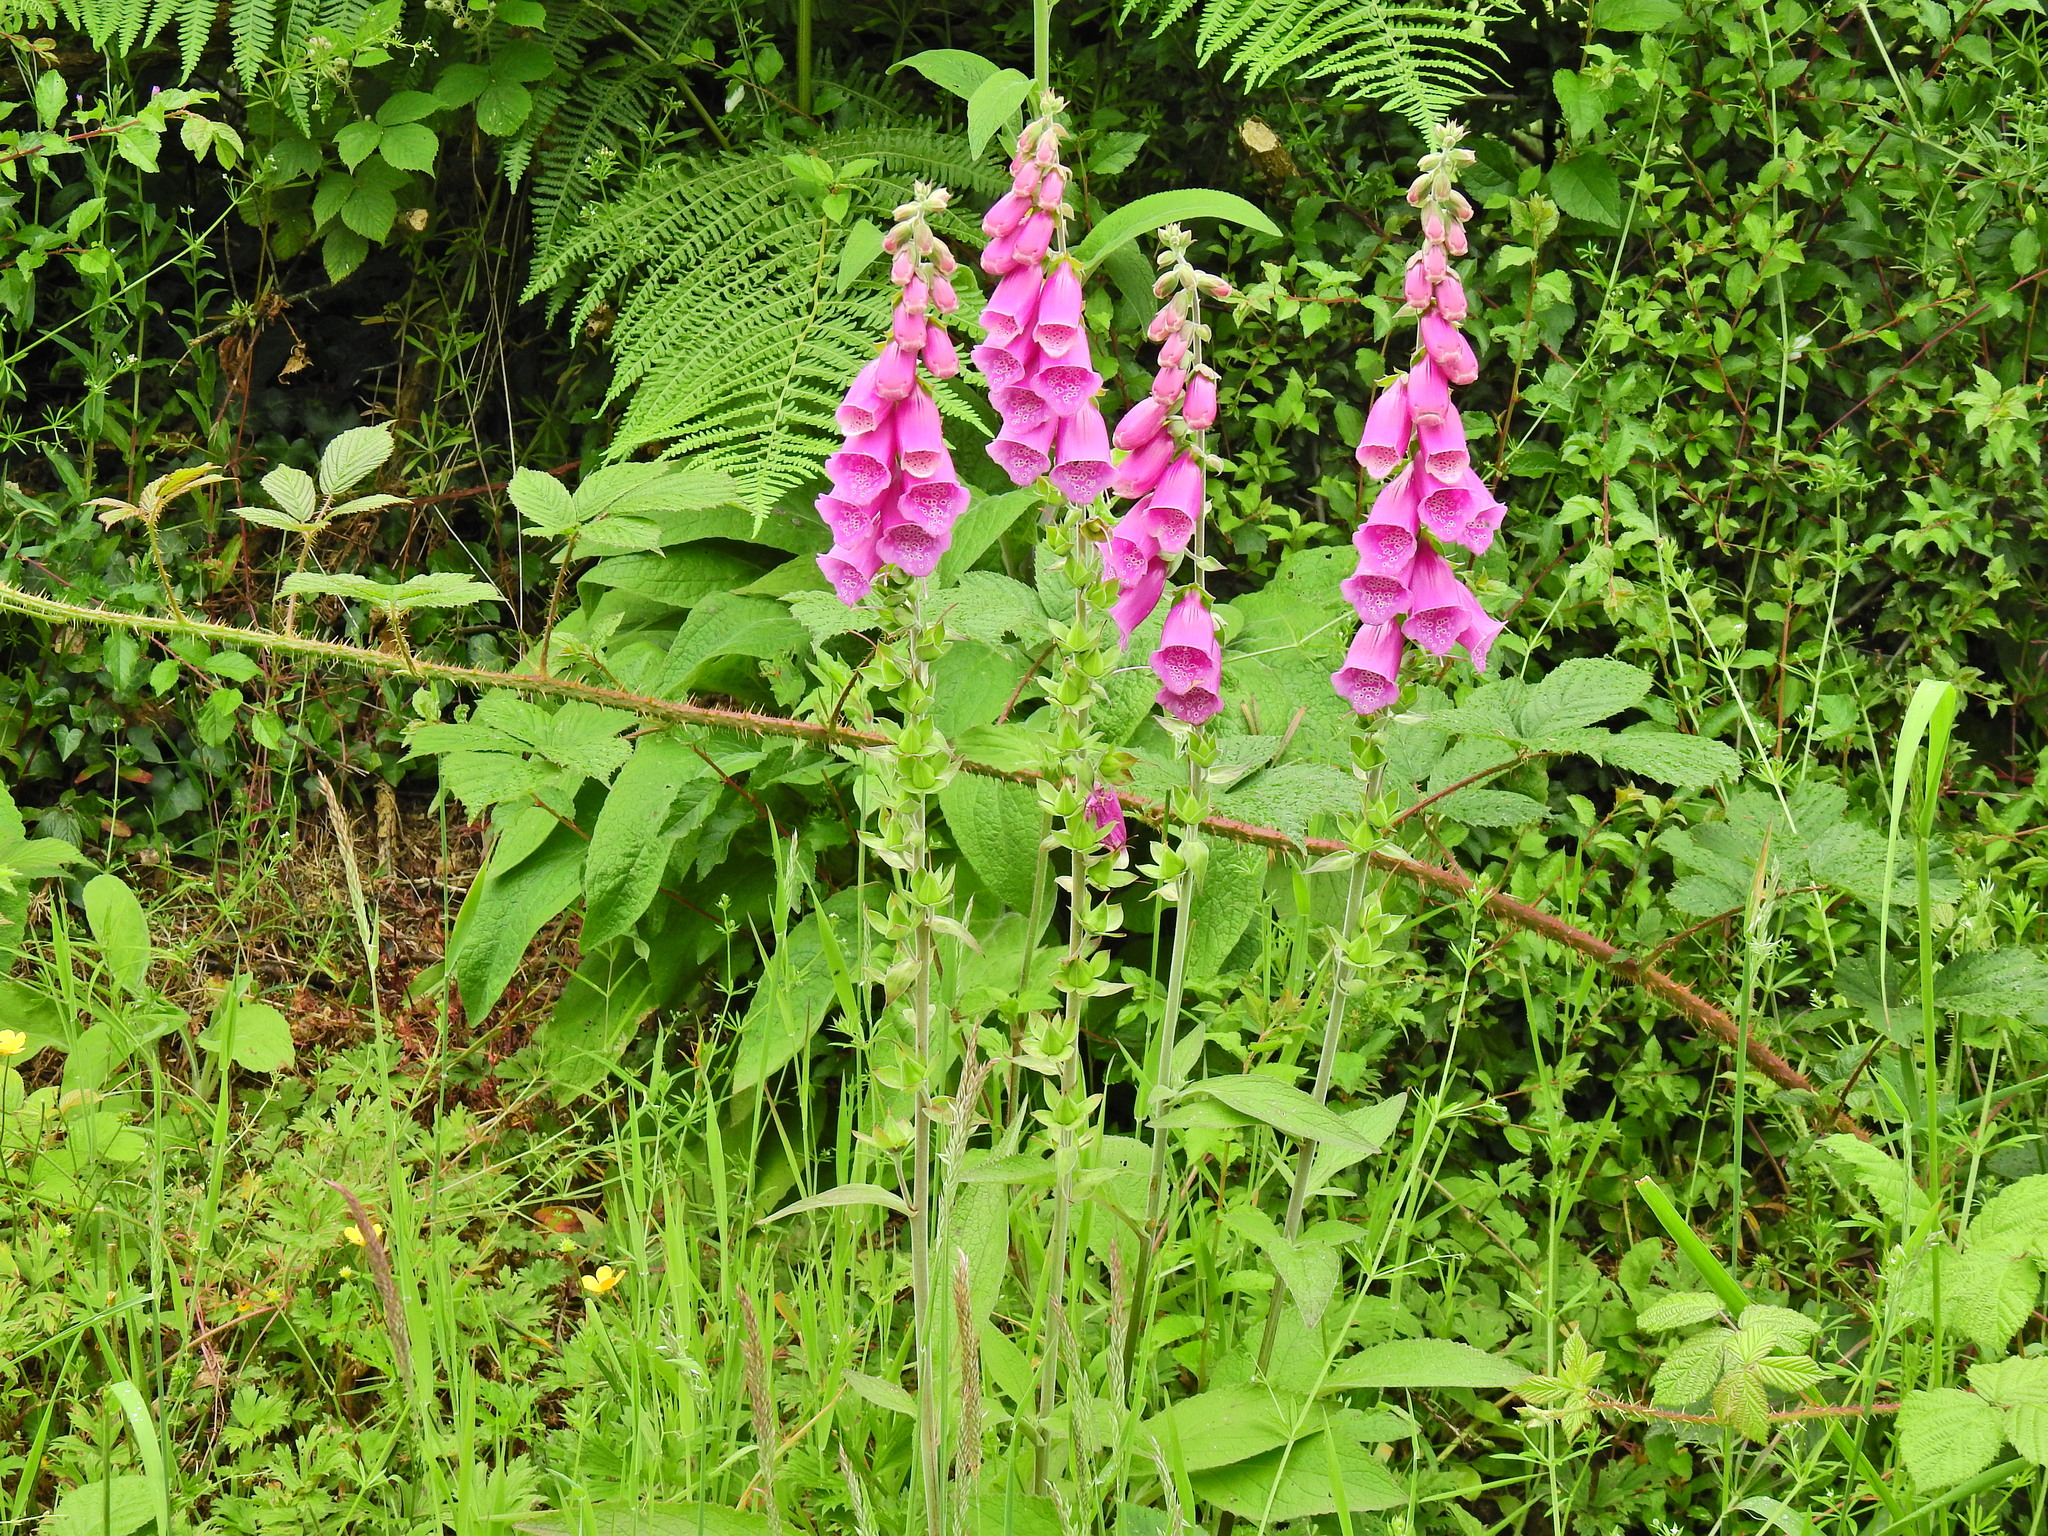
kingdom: Plantae
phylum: Tracheophyta
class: Magnoliopsida
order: Lamiales
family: Plantaginaceae
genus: Digitalis
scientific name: Digitalis purpurea
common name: Foxglove
